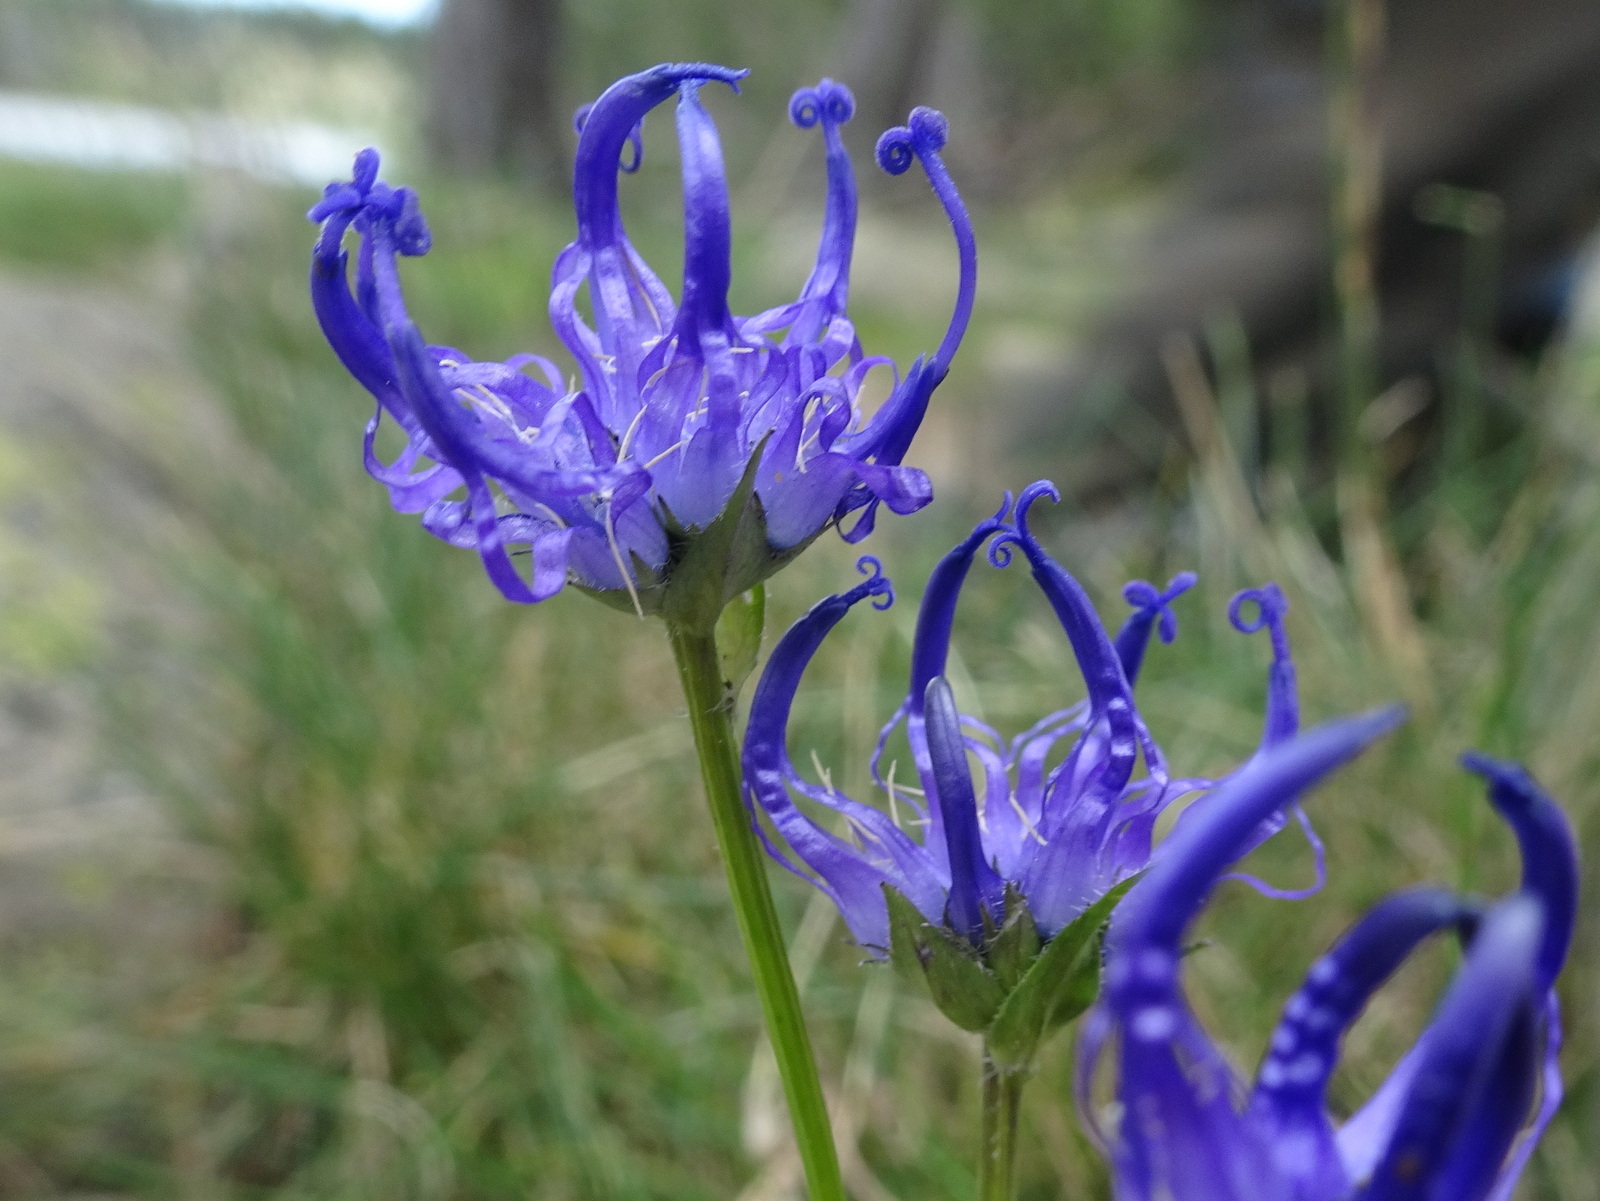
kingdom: Plantae
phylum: Tracheophyta
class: Magnoliopsida
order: Asterales
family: Campanulaceae
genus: Phyteuma
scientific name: Phyteuma hemisphaericum
